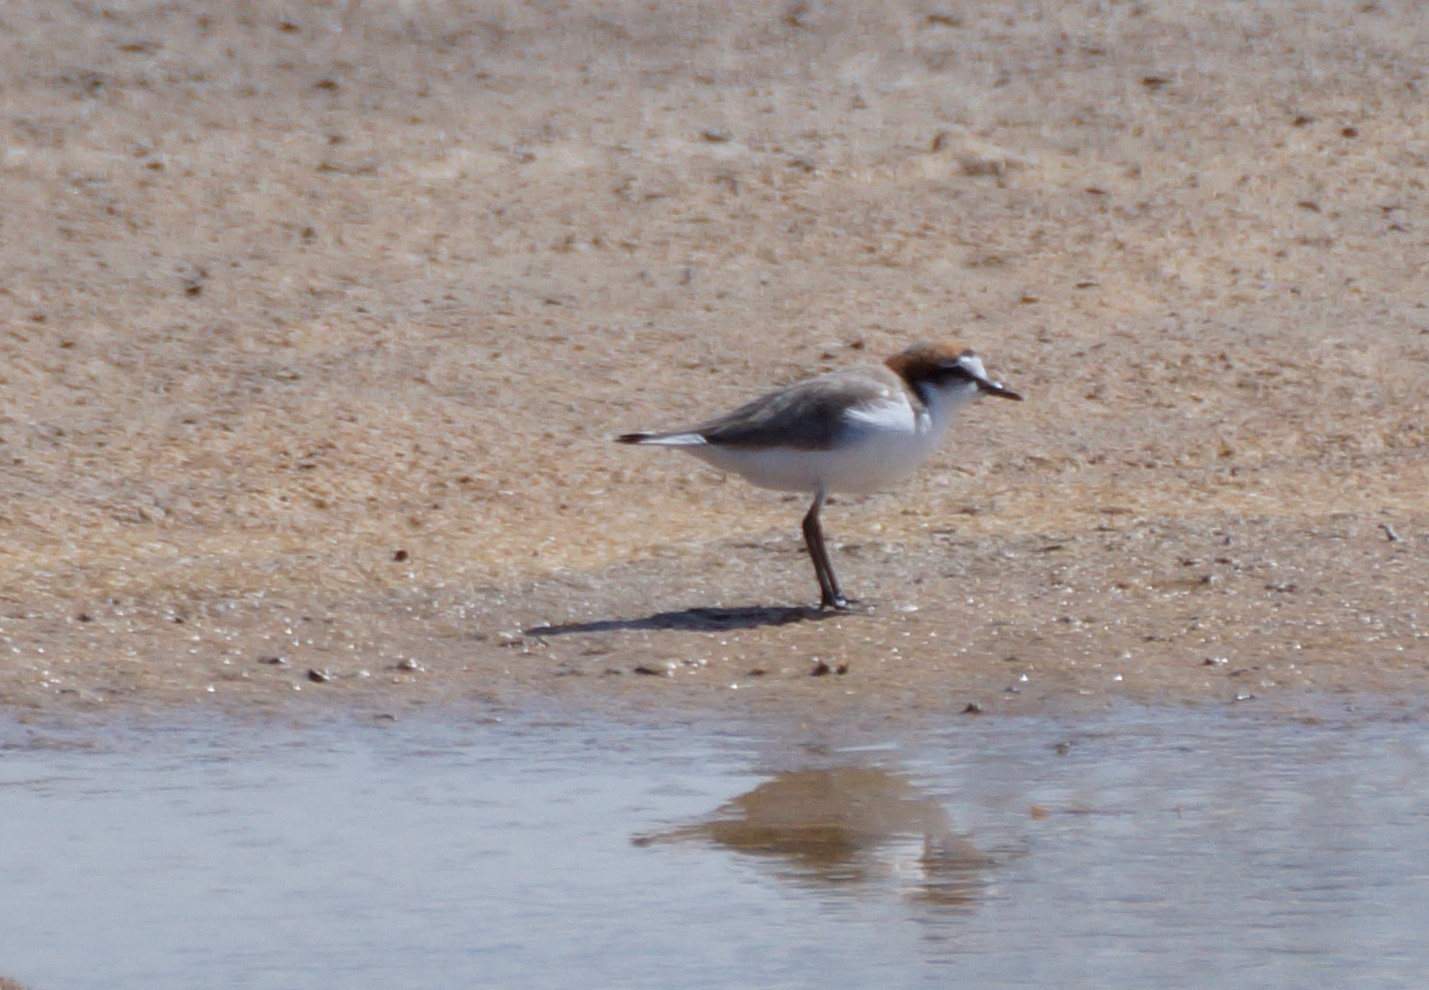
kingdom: Animalia
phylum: Chordata
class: Aves
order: Charadriiformes
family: Charadriidae
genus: Anarhynchus
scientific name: Anarhynchus
